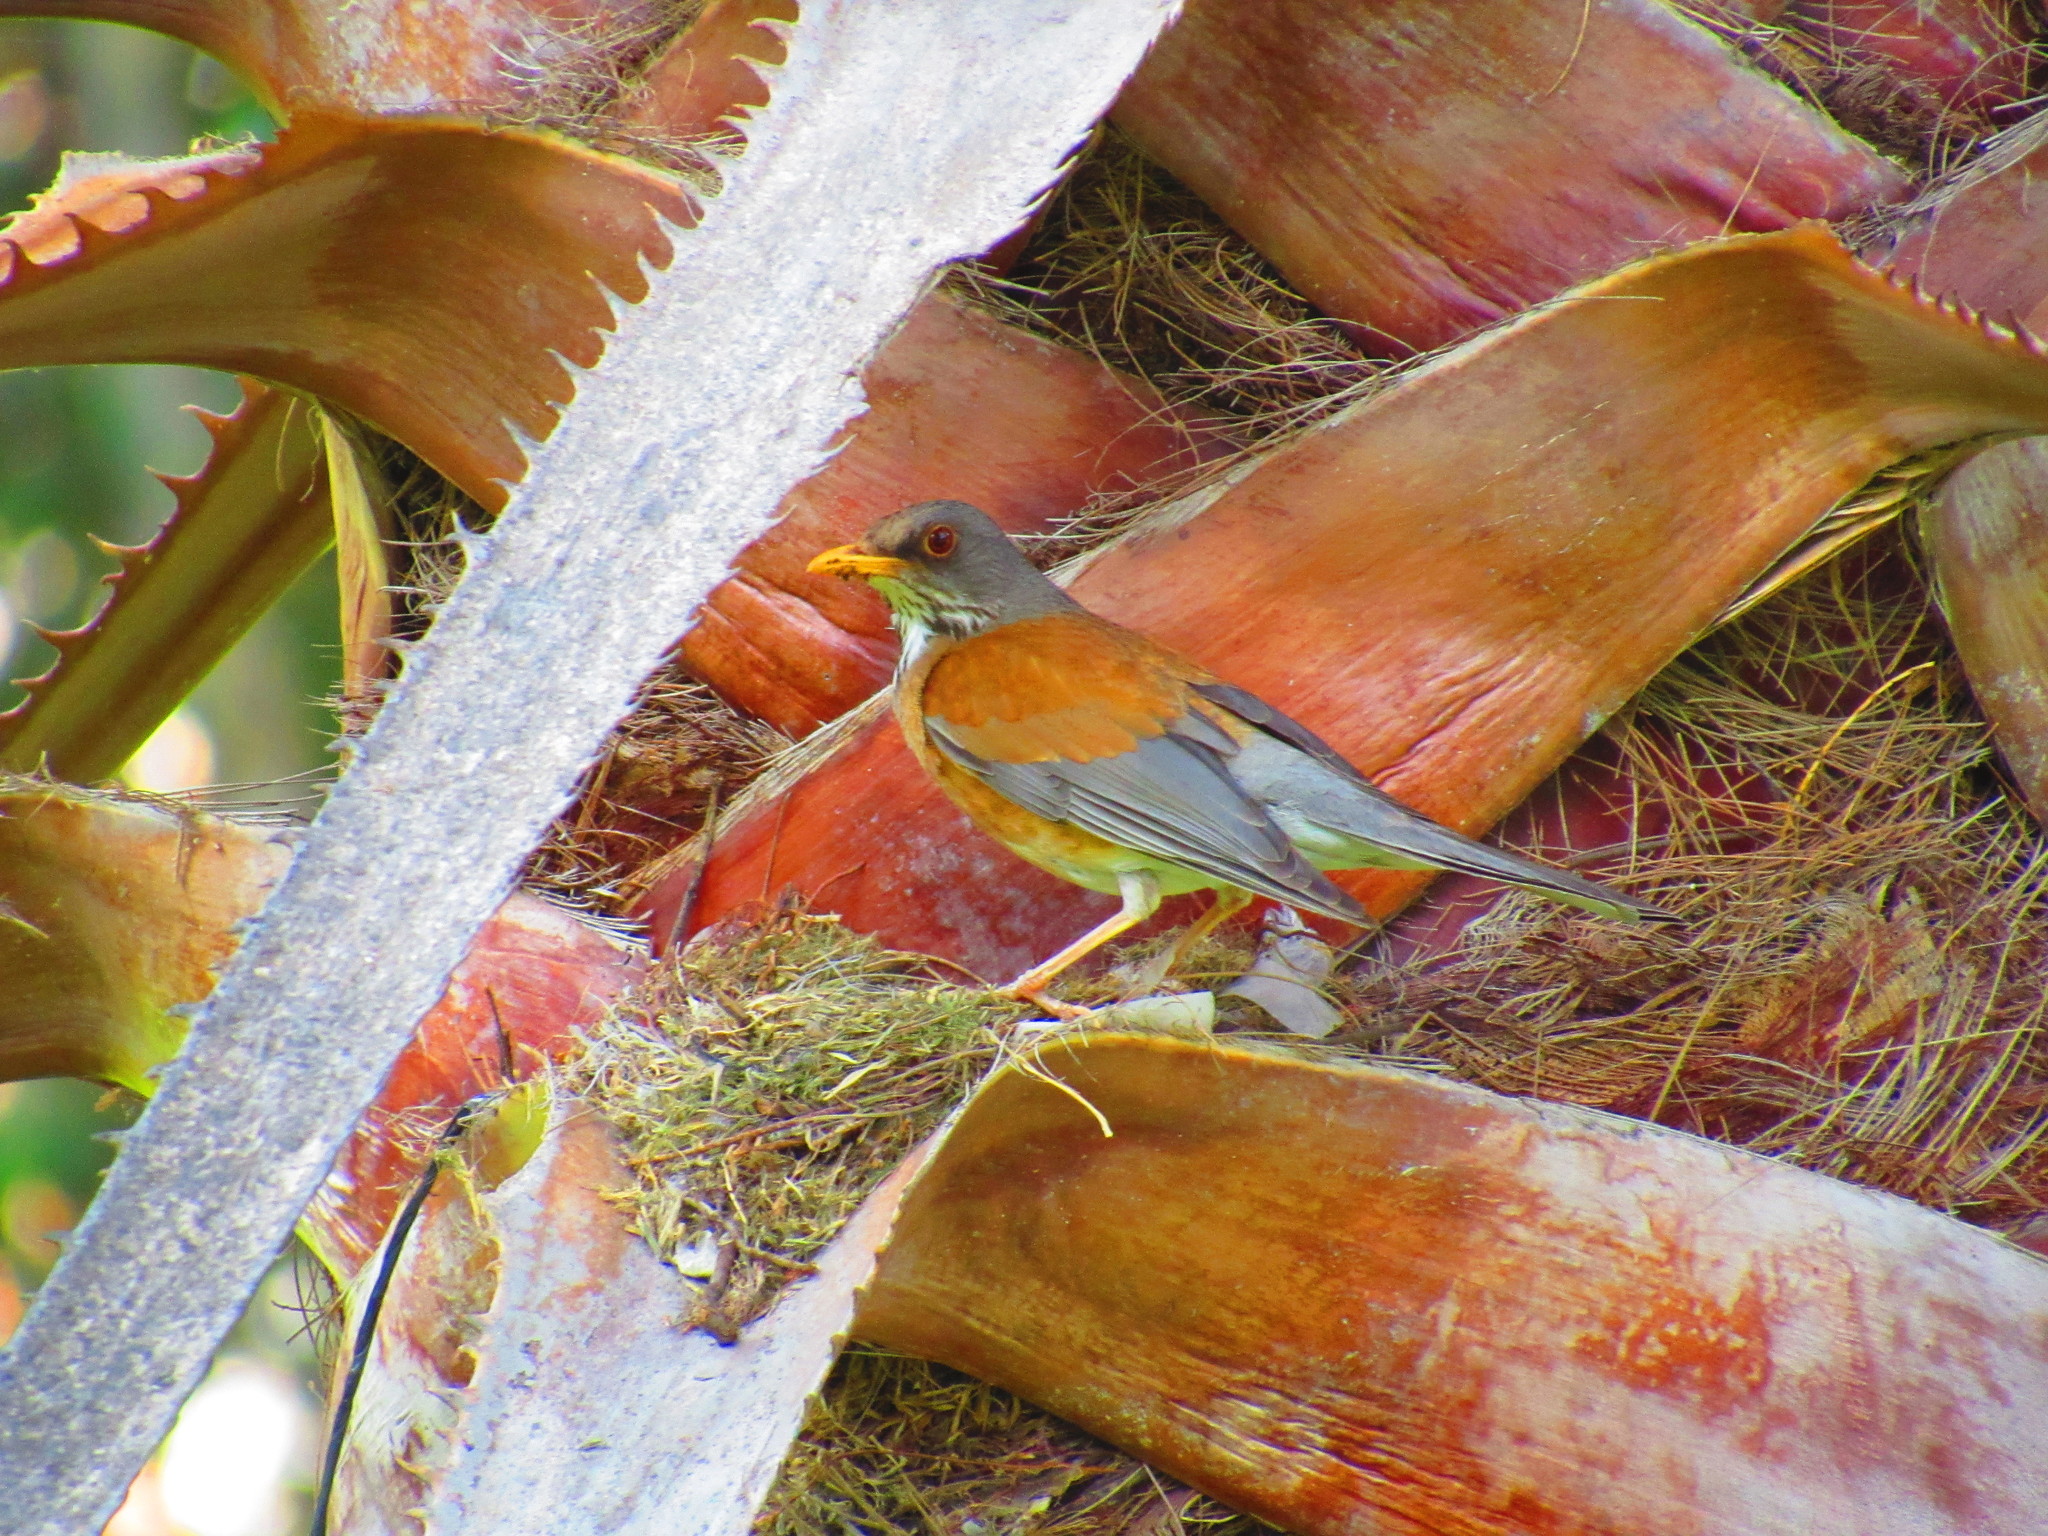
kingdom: Animalia
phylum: Chordata
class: Aves
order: Passeriformes
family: Turdidae
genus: Turdus
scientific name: Turdus rufopalliatus
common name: Rufous-backed robin
